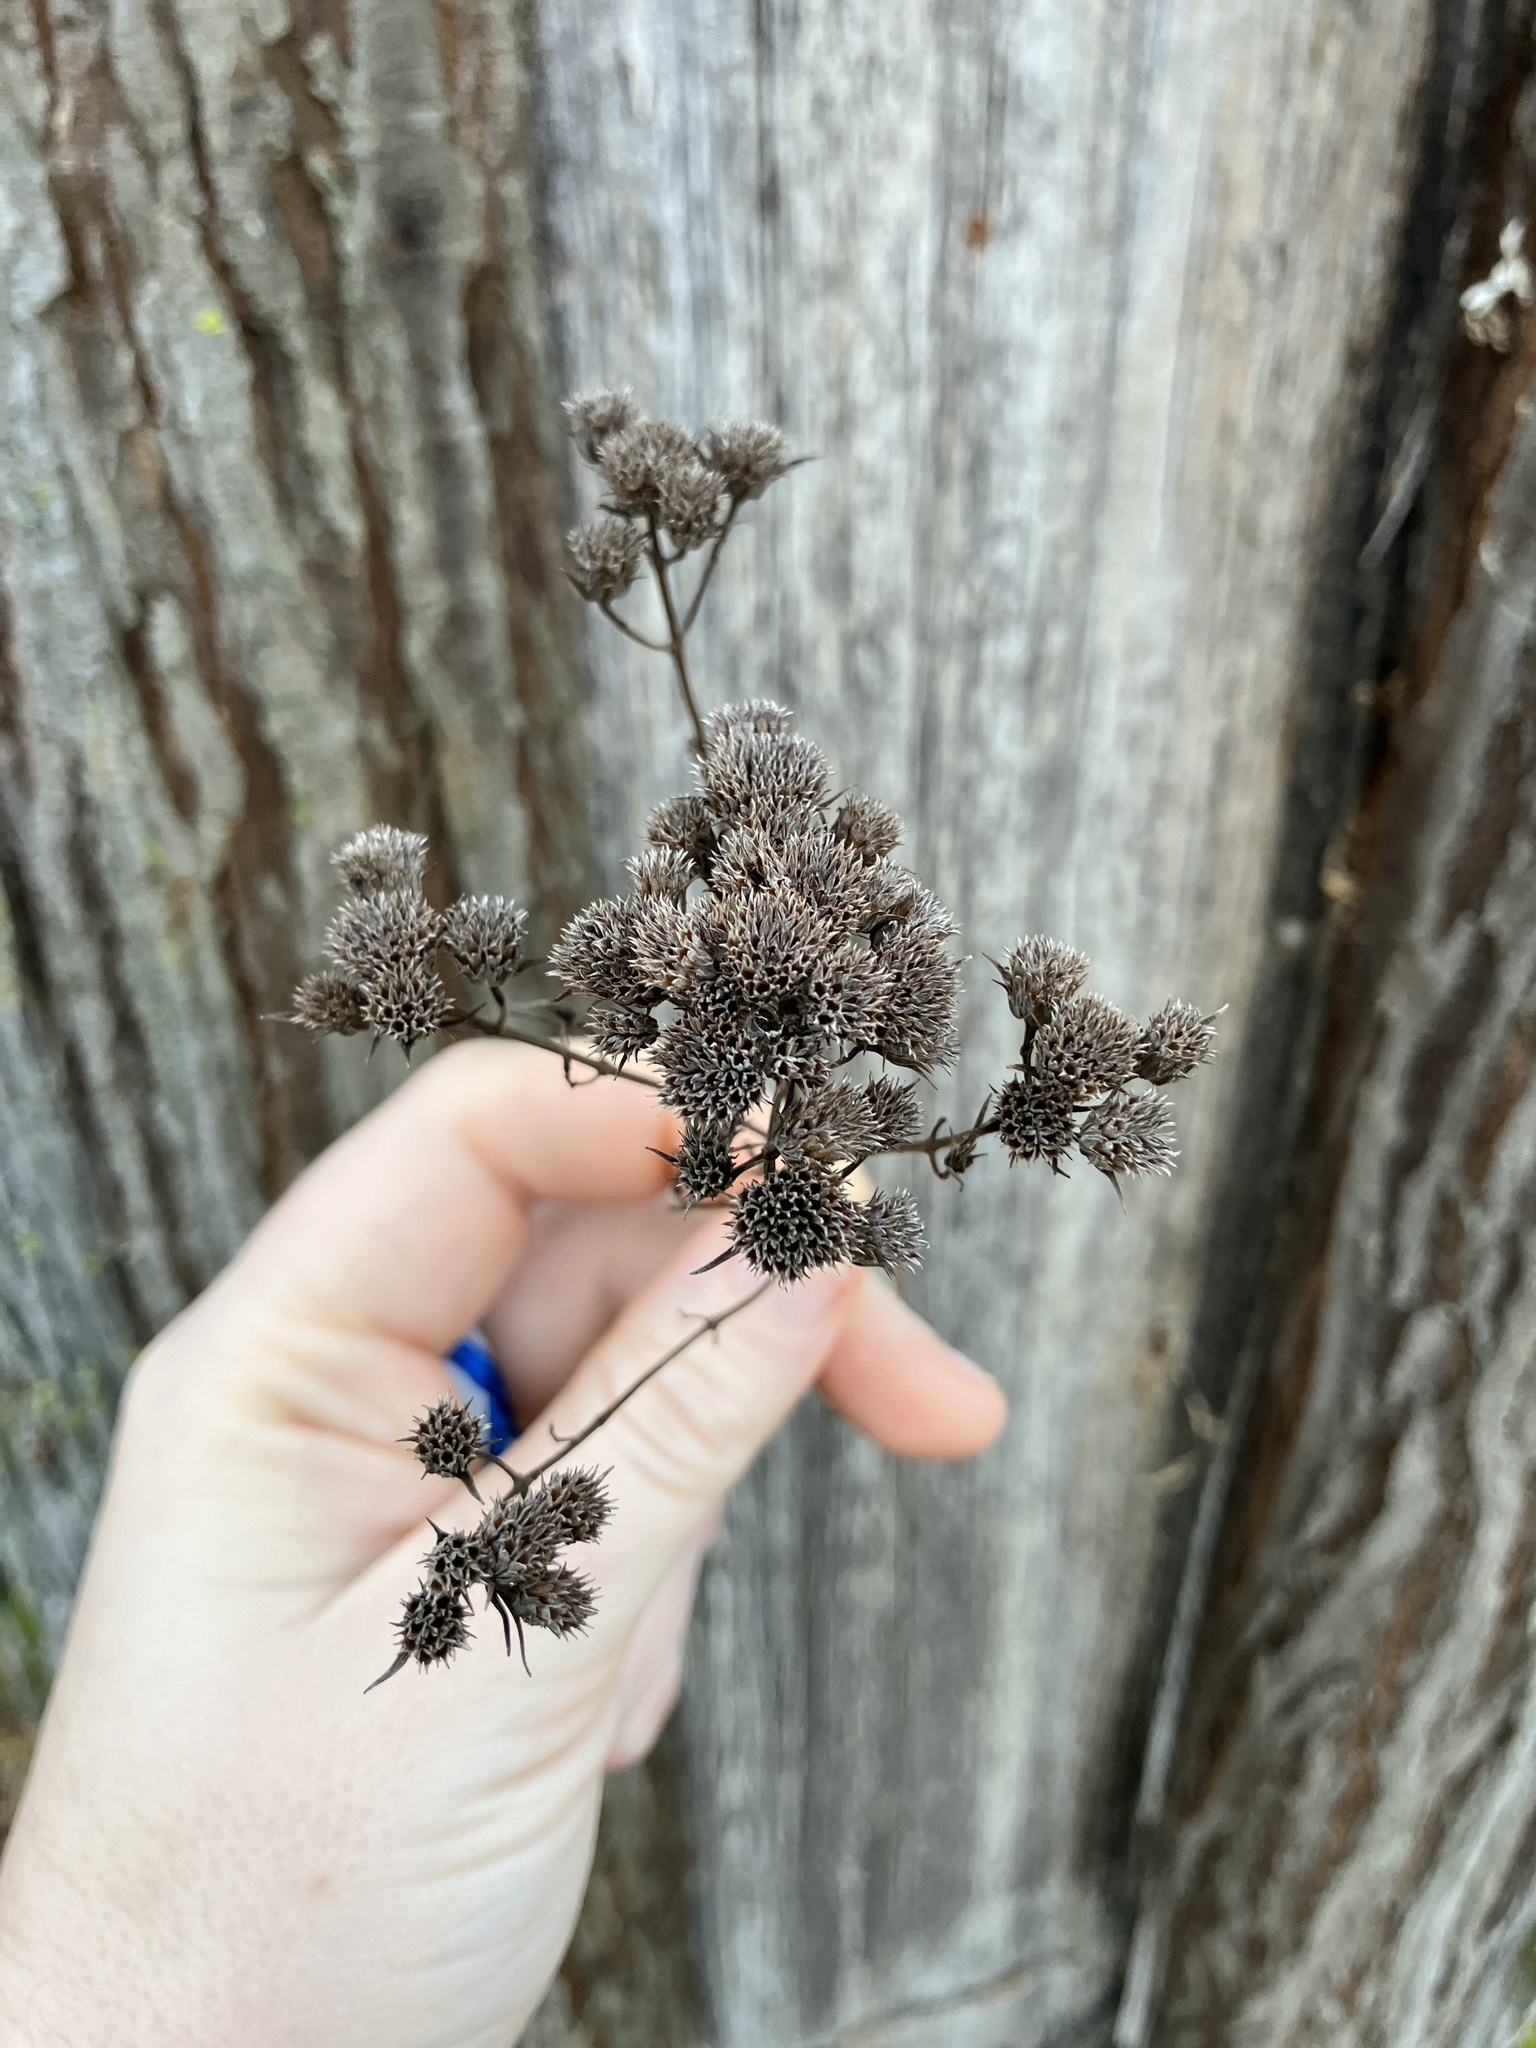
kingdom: Plantae
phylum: Tracheophyta
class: Magnoliopsida
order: Lamiales
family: Lamiaceae
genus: Pycnanthemum
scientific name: Pycnanthemum tenuifolium
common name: Narrow-leaf mountain-mint
